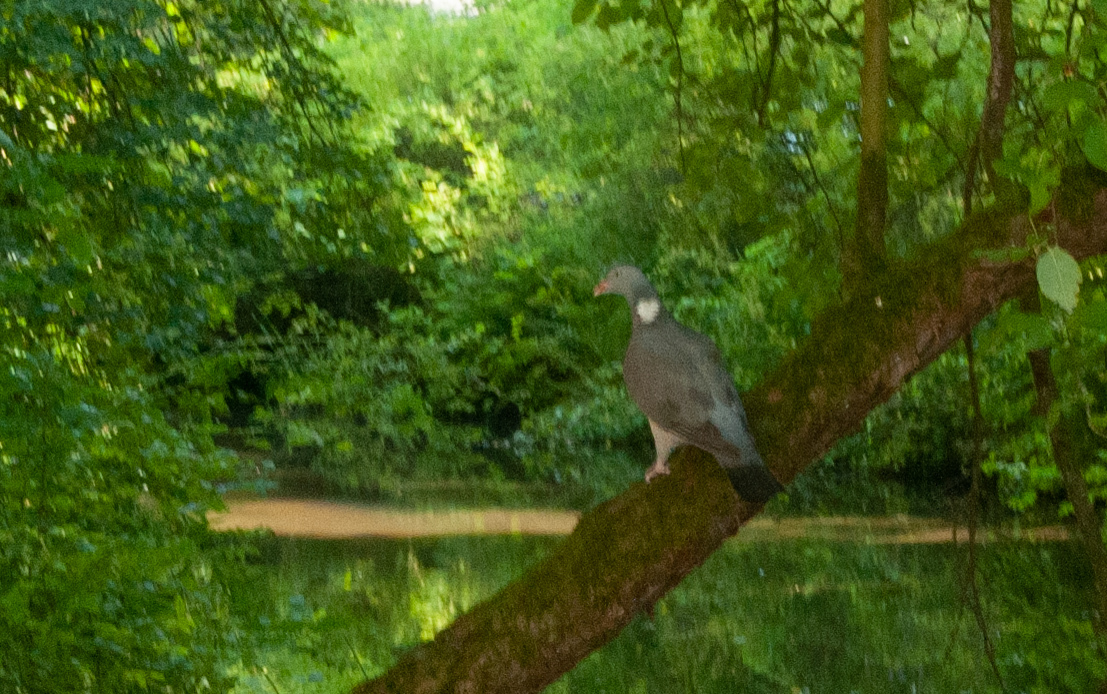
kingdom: Animalia
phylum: Chordata
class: Aves
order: Columbiformes
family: Columbidae
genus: Columba
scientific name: Columba palumbus
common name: Common wood pigeon
